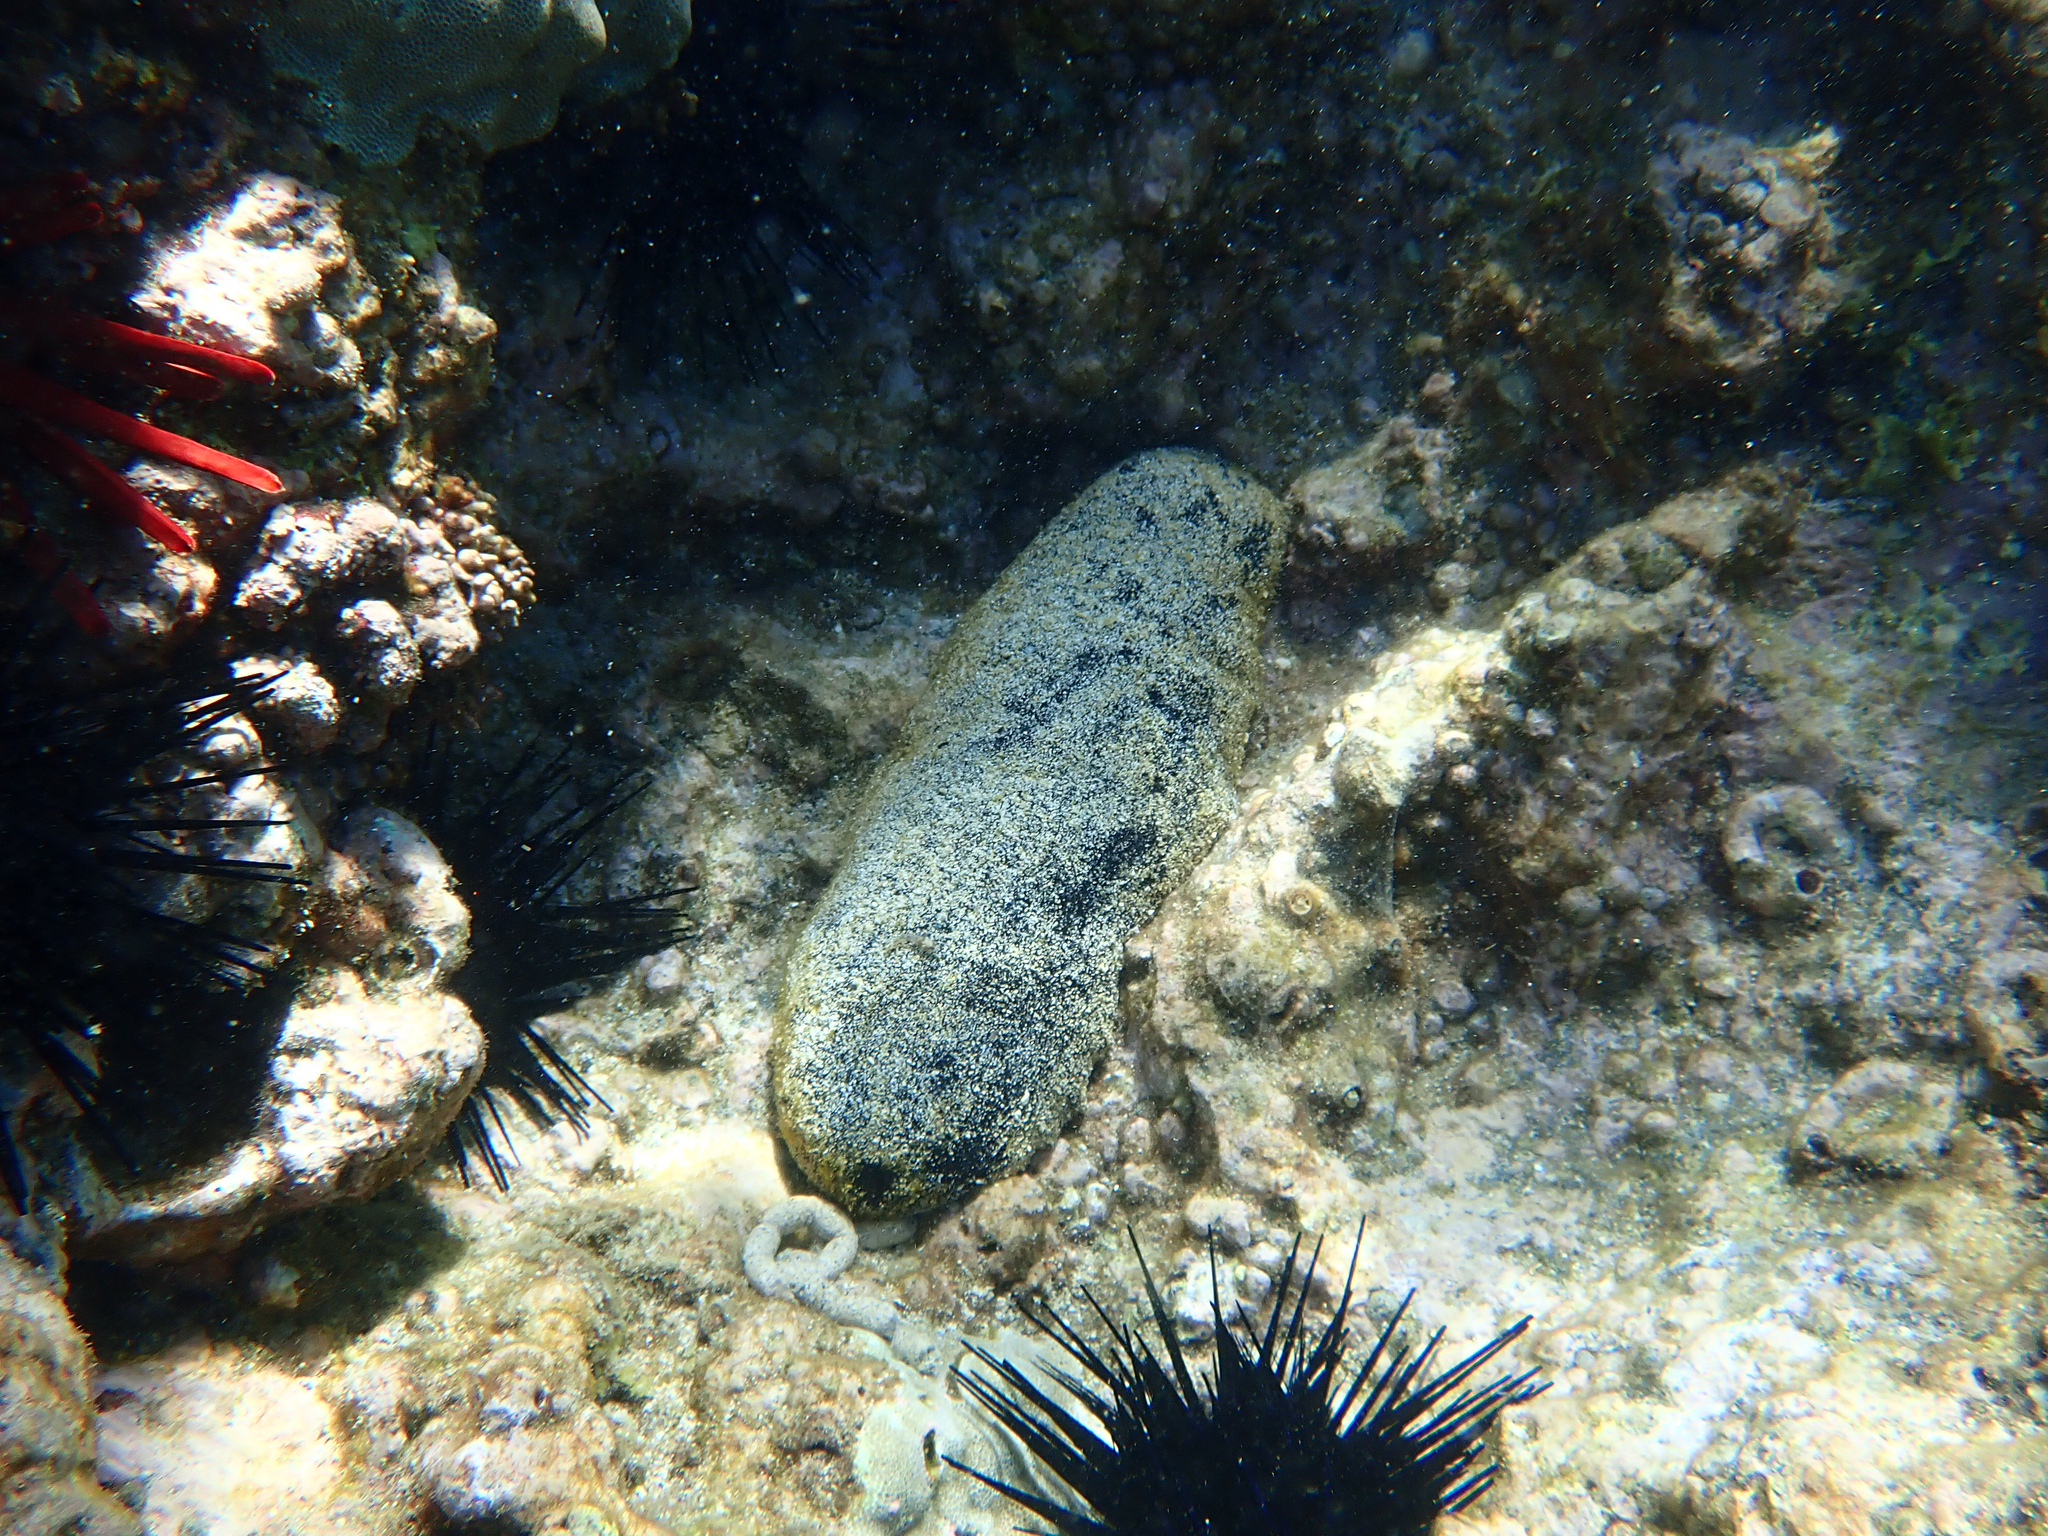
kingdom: Animalia
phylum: Echinodermata
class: Holothuroidea
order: Holothuriida
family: Holothuriidae
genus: Holothuria
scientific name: Holothuria whitmaei
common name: Black teatfish
